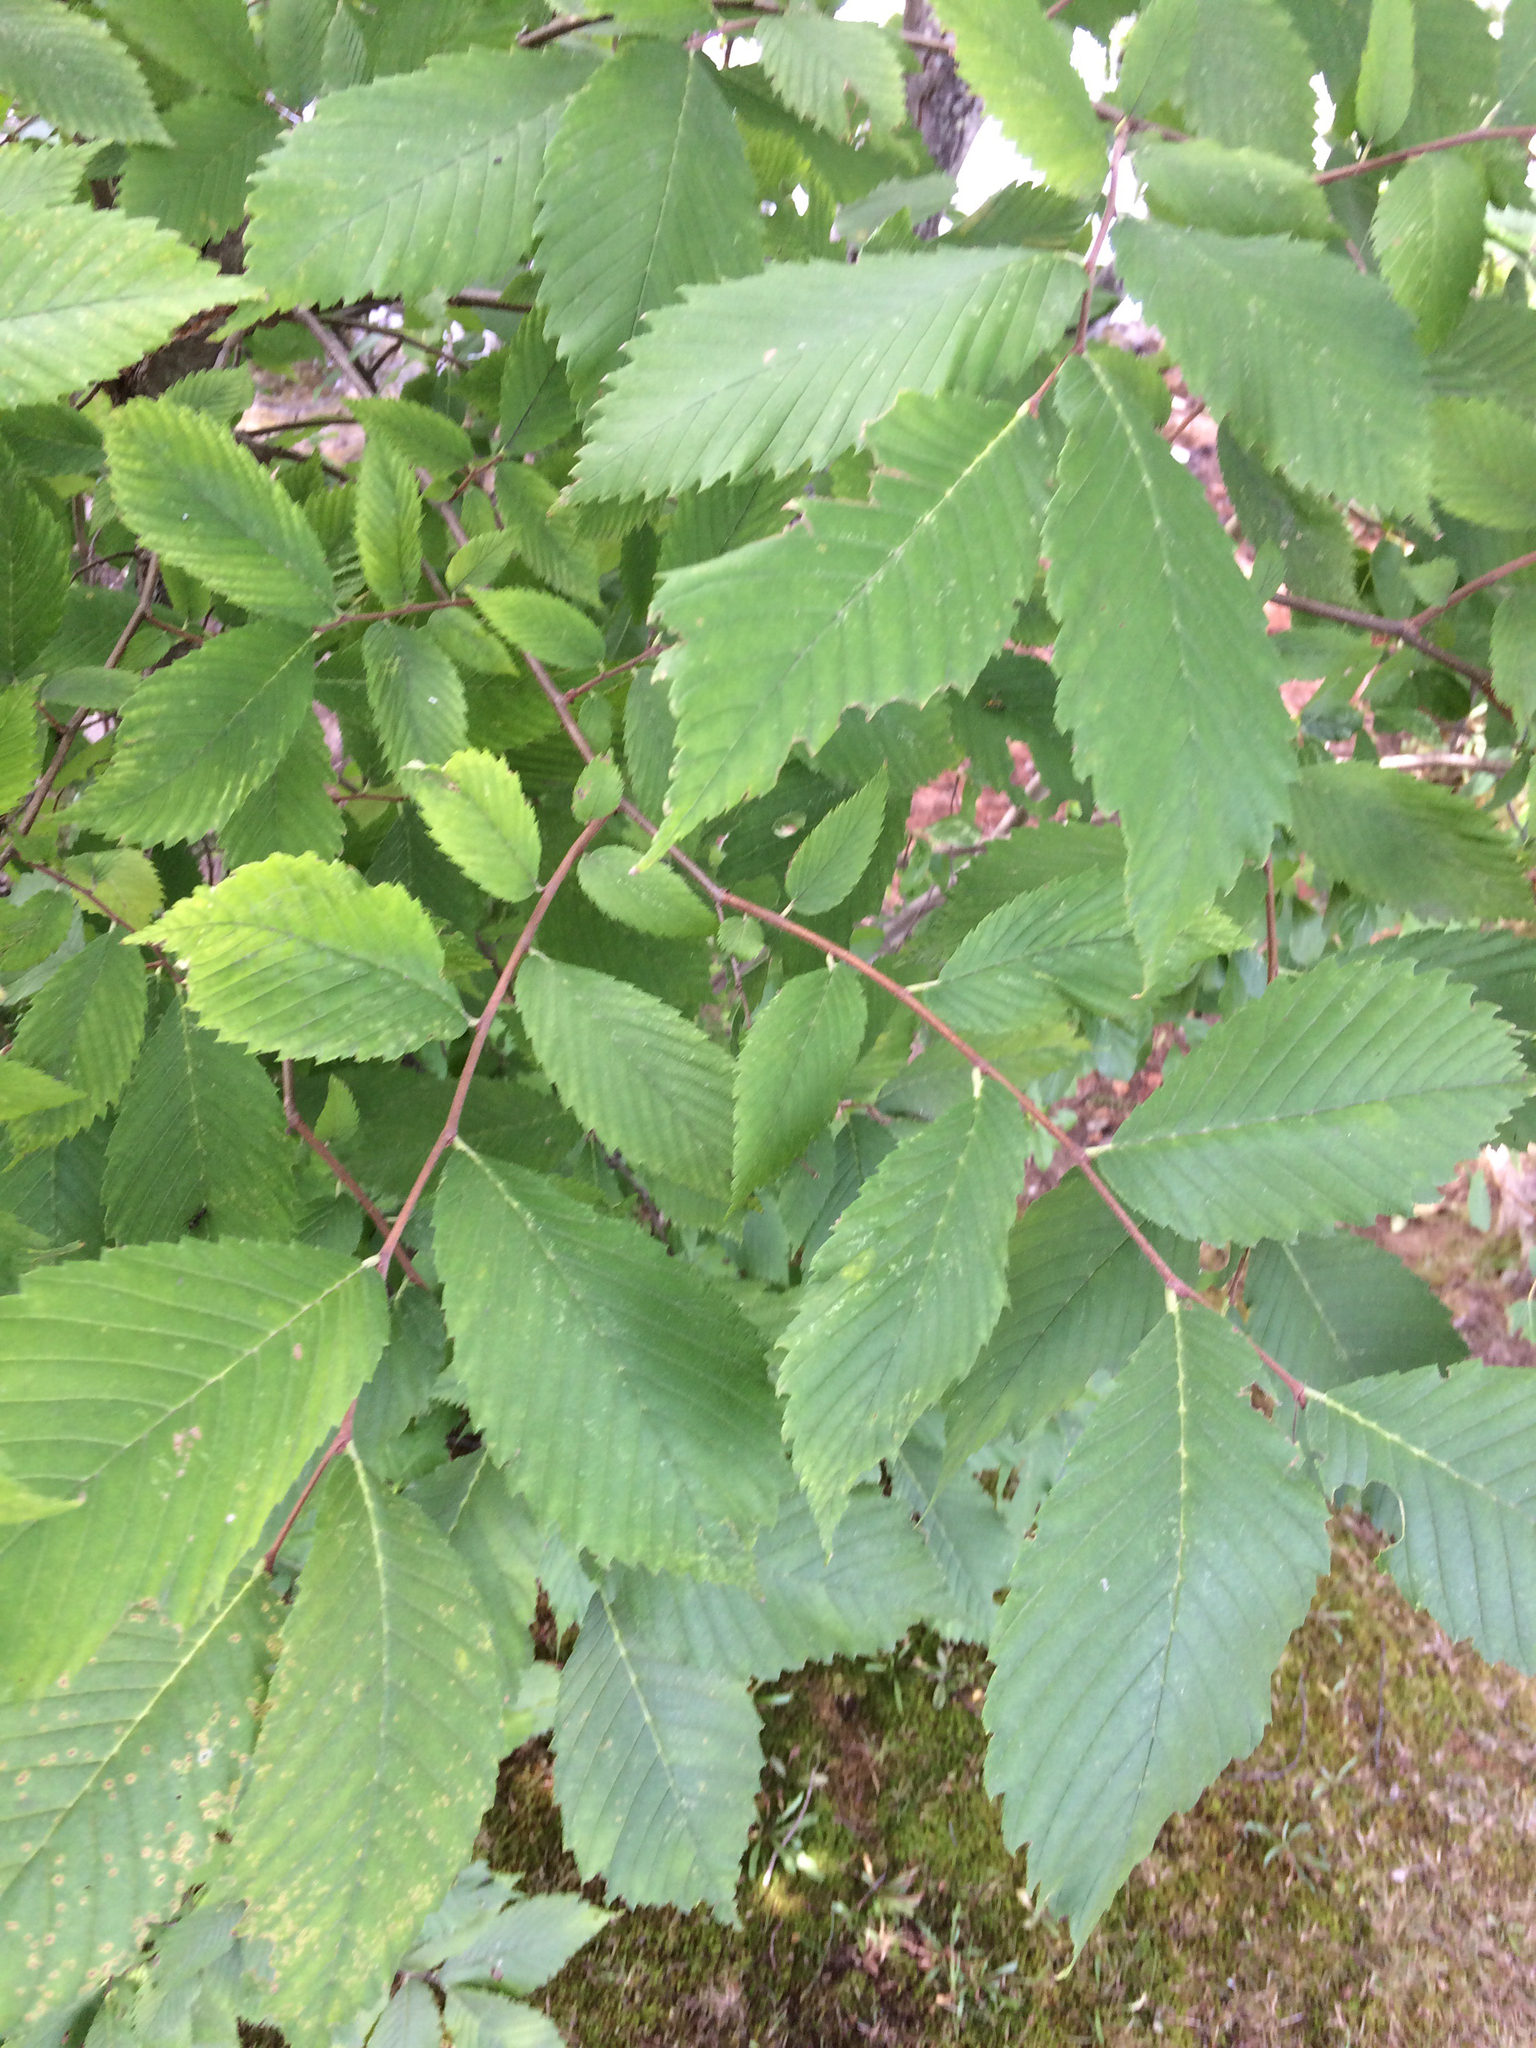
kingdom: Plantae
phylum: Tracheophyta
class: Magnoliopsida
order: Rosales
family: Ulmaceae
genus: Ulmus
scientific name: Ulmus americana
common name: American elm
